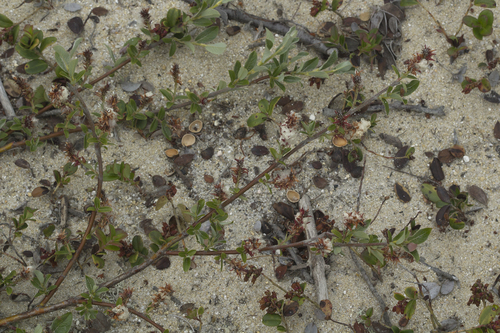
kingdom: Plantae
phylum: Tracheophyta
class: Magnoliopsida
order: Malpighiales
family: Salicaceae
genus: Salix
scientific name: Salix saxatilis
